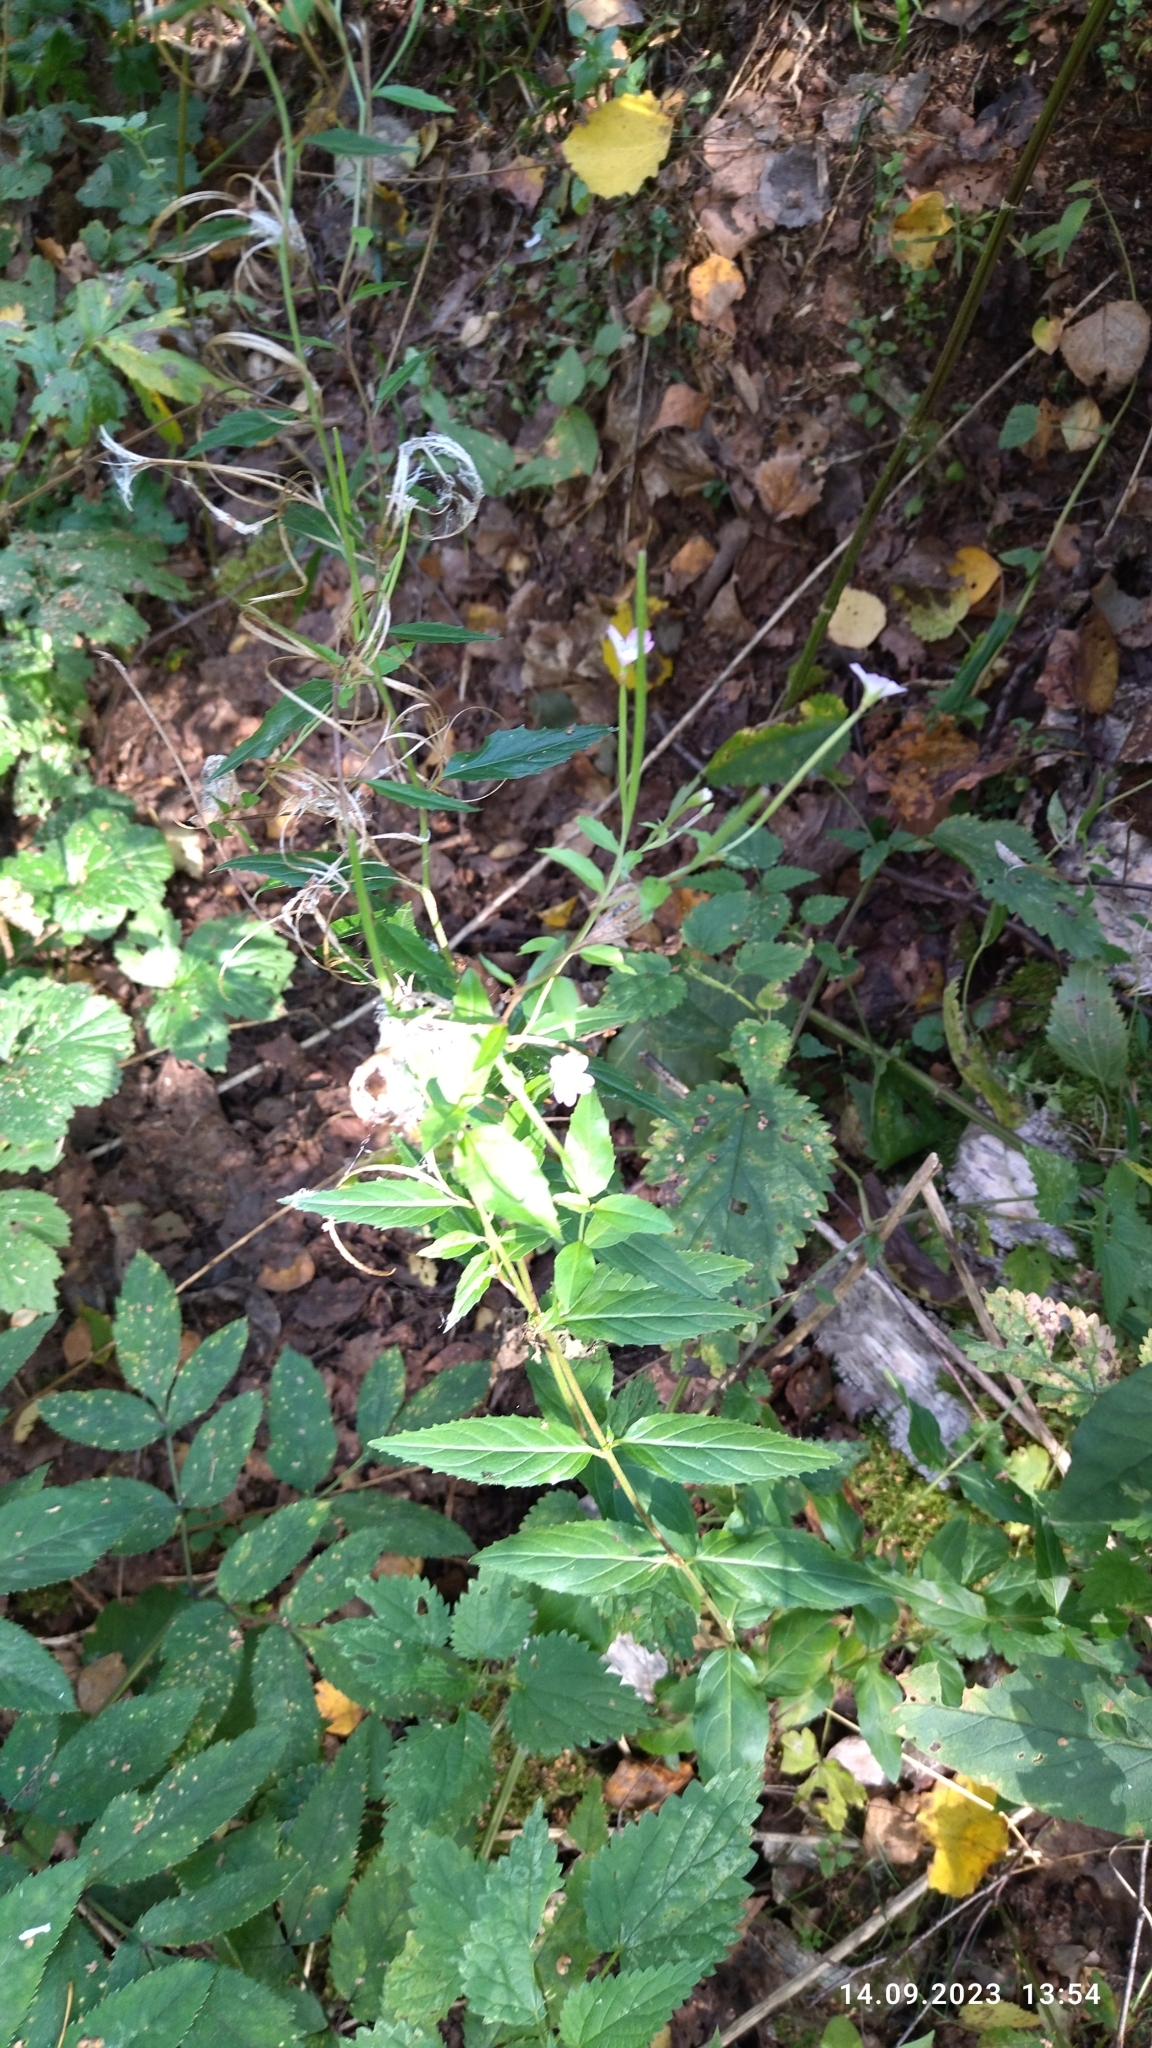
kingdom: Plantae
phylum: Tracheophyta
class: Magnoliopsida
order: Myrtales
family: Onagraceae
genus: Epilobium
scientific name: Epilobium montanum
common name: Broad-leaved willowherb
